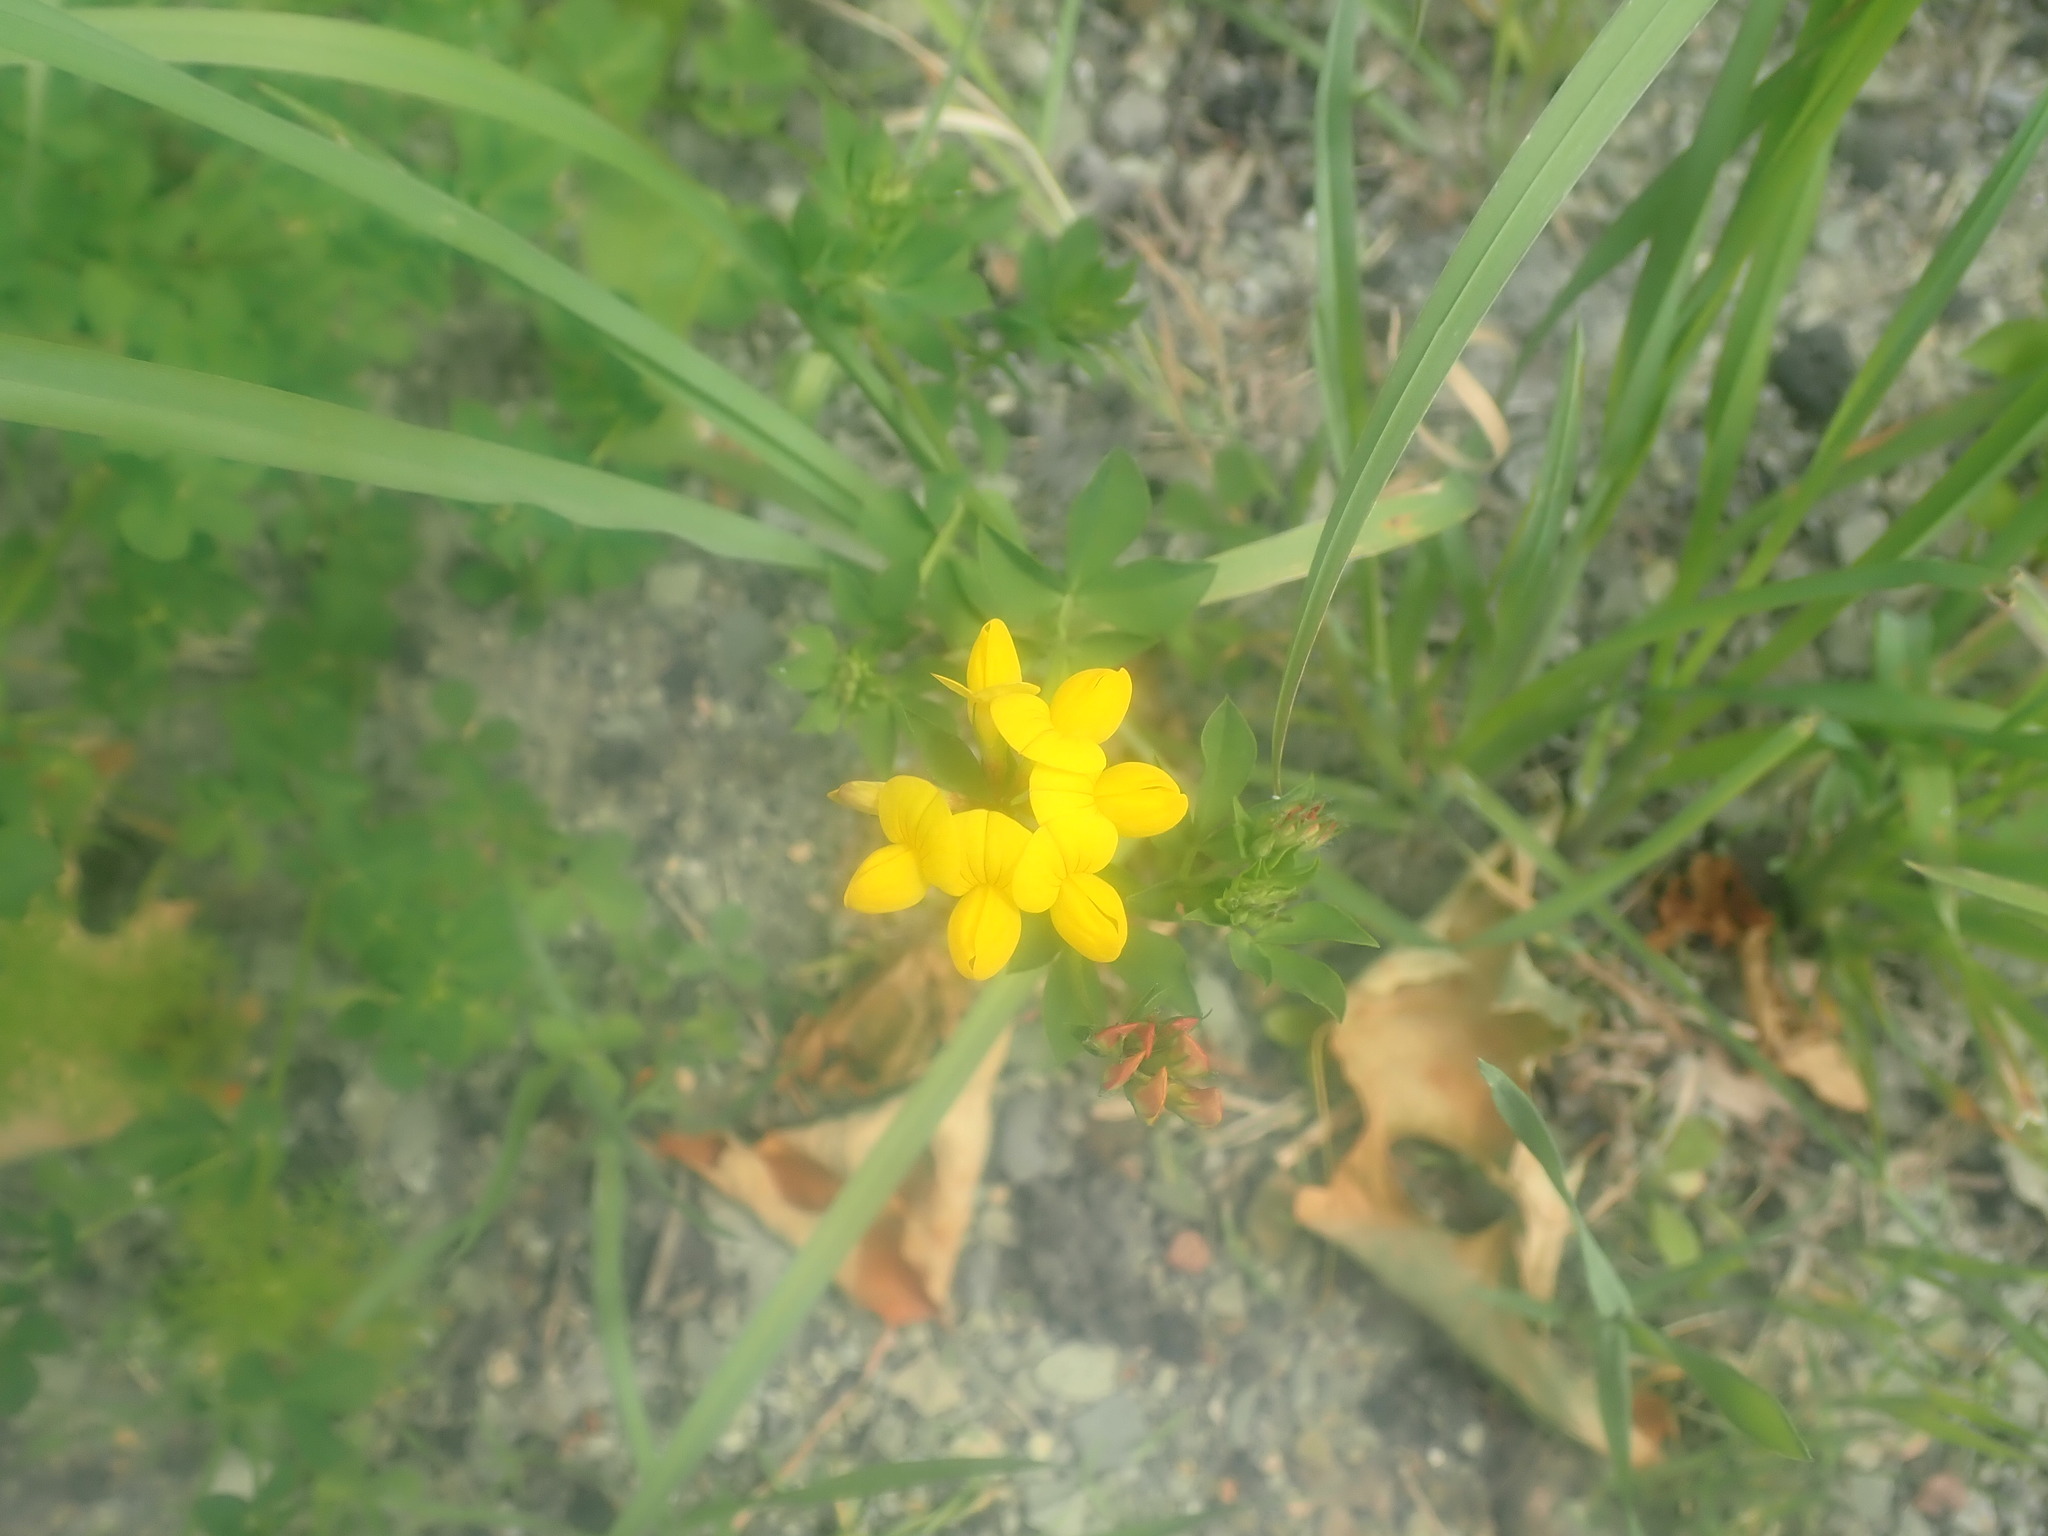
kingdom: Plantae
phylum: Tracheophyta
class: Magnoliopsida
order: Fabales
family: Fabaceae
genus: Lotus
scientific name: Lotus corniculatus
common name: Common bird's-foot-trefoil
